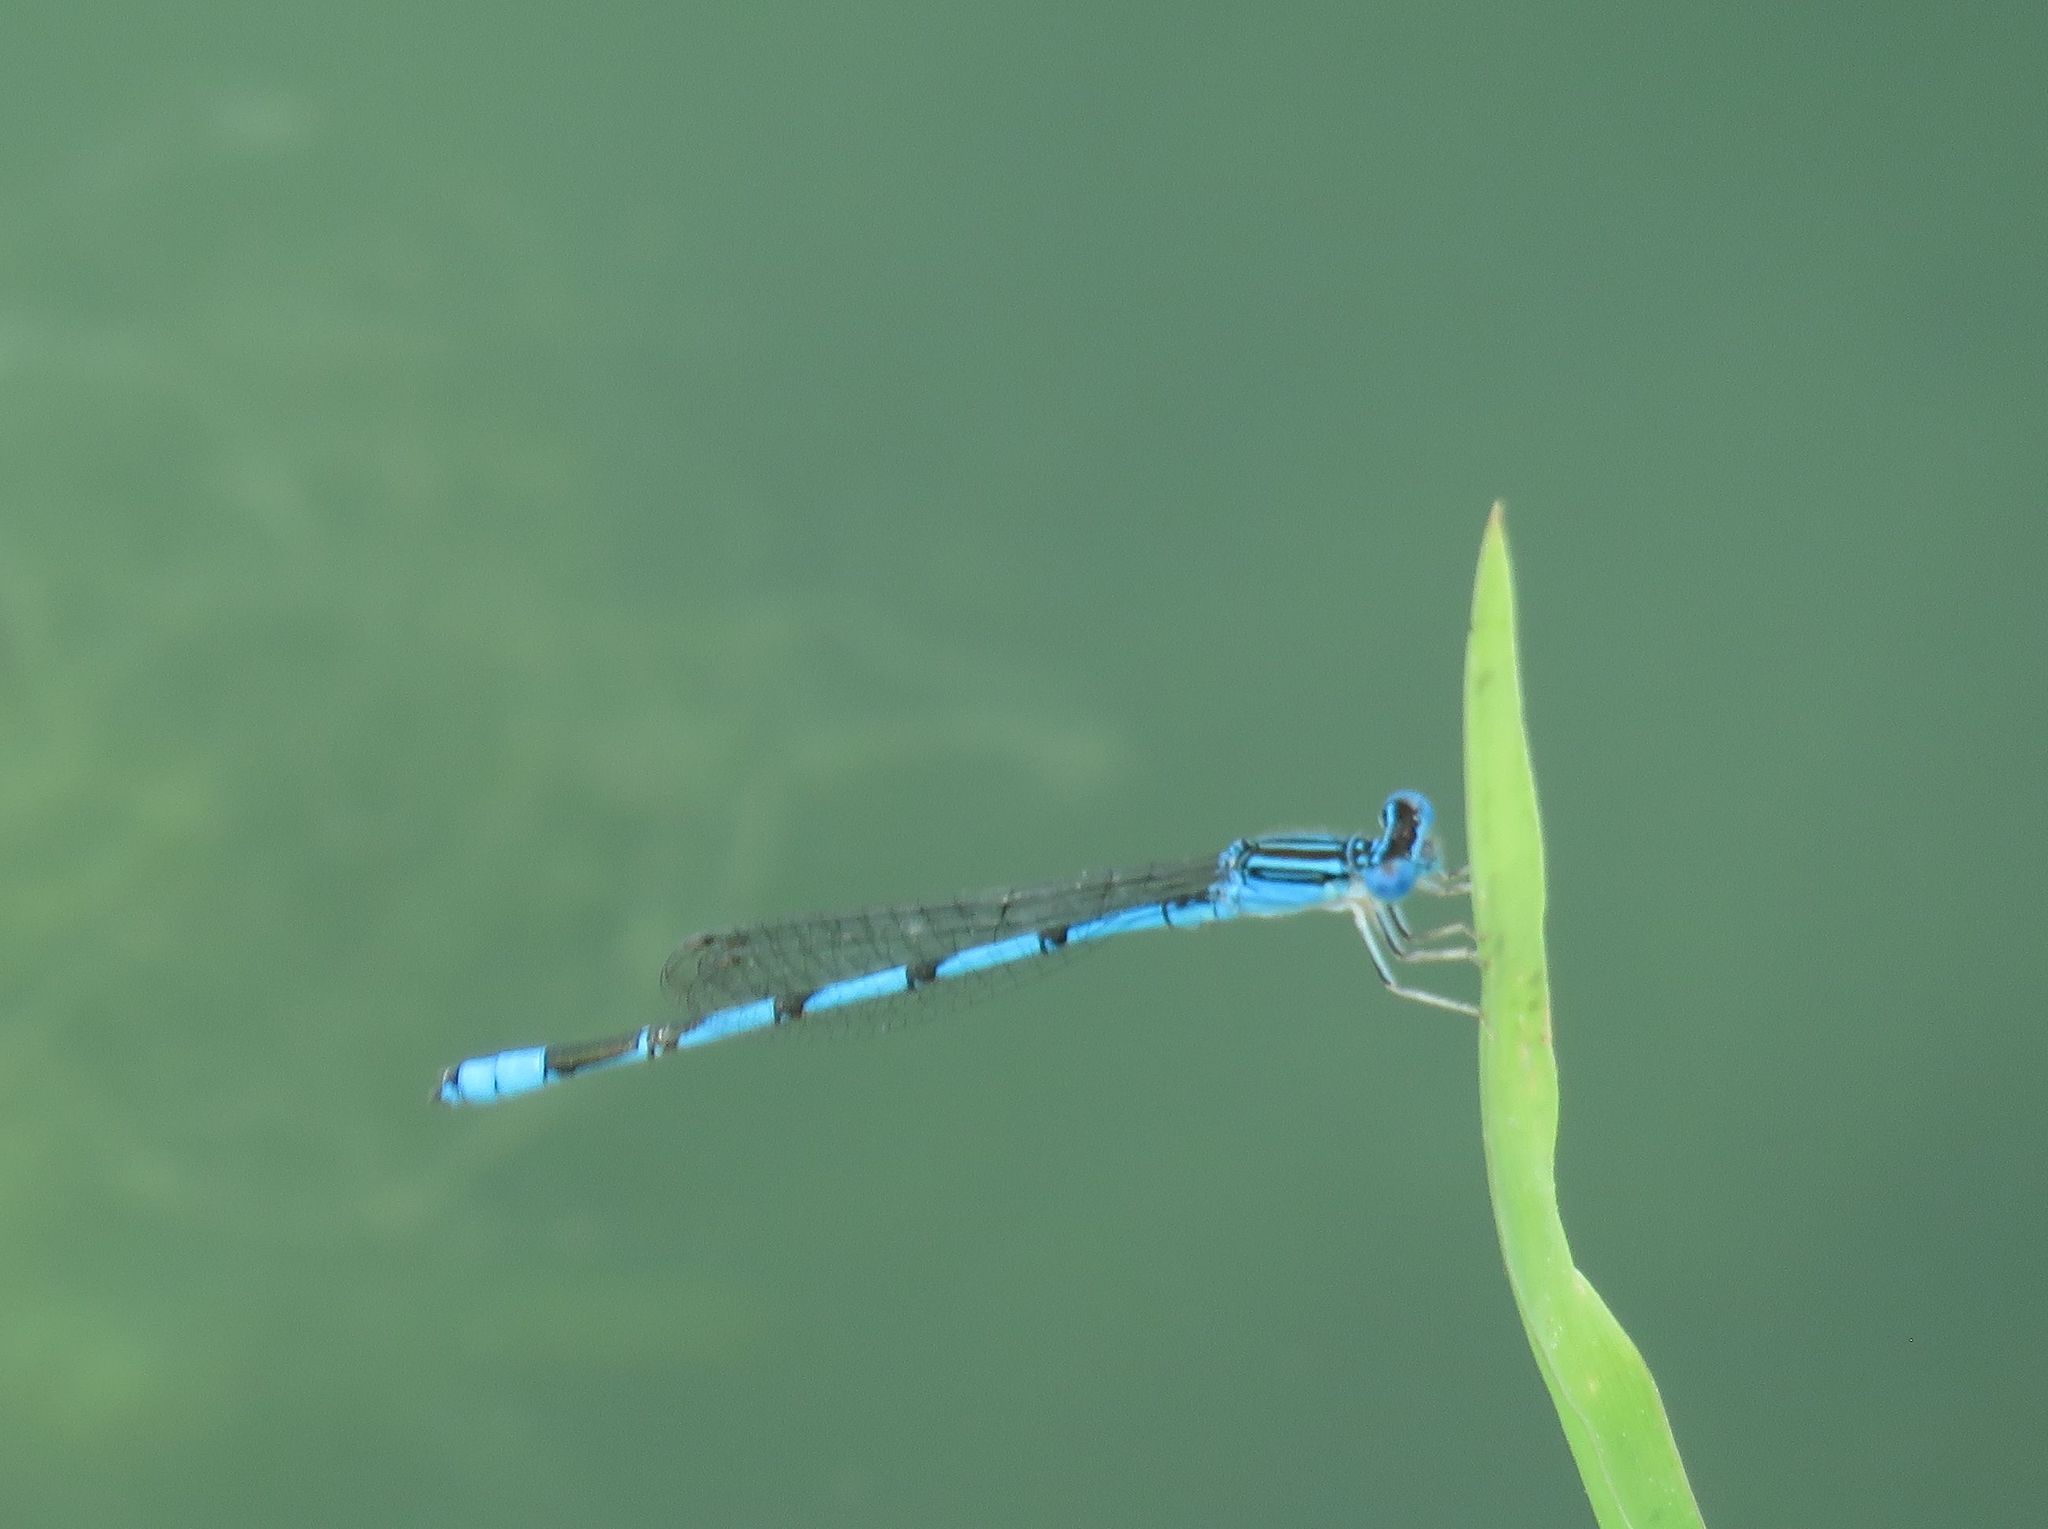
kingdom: Animalia
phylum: Arthropoda
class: Insecta
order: Odonata
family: Coenagrionidae
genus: Enallagma
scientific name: Enallagma basidens
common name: Double-striped bluet
